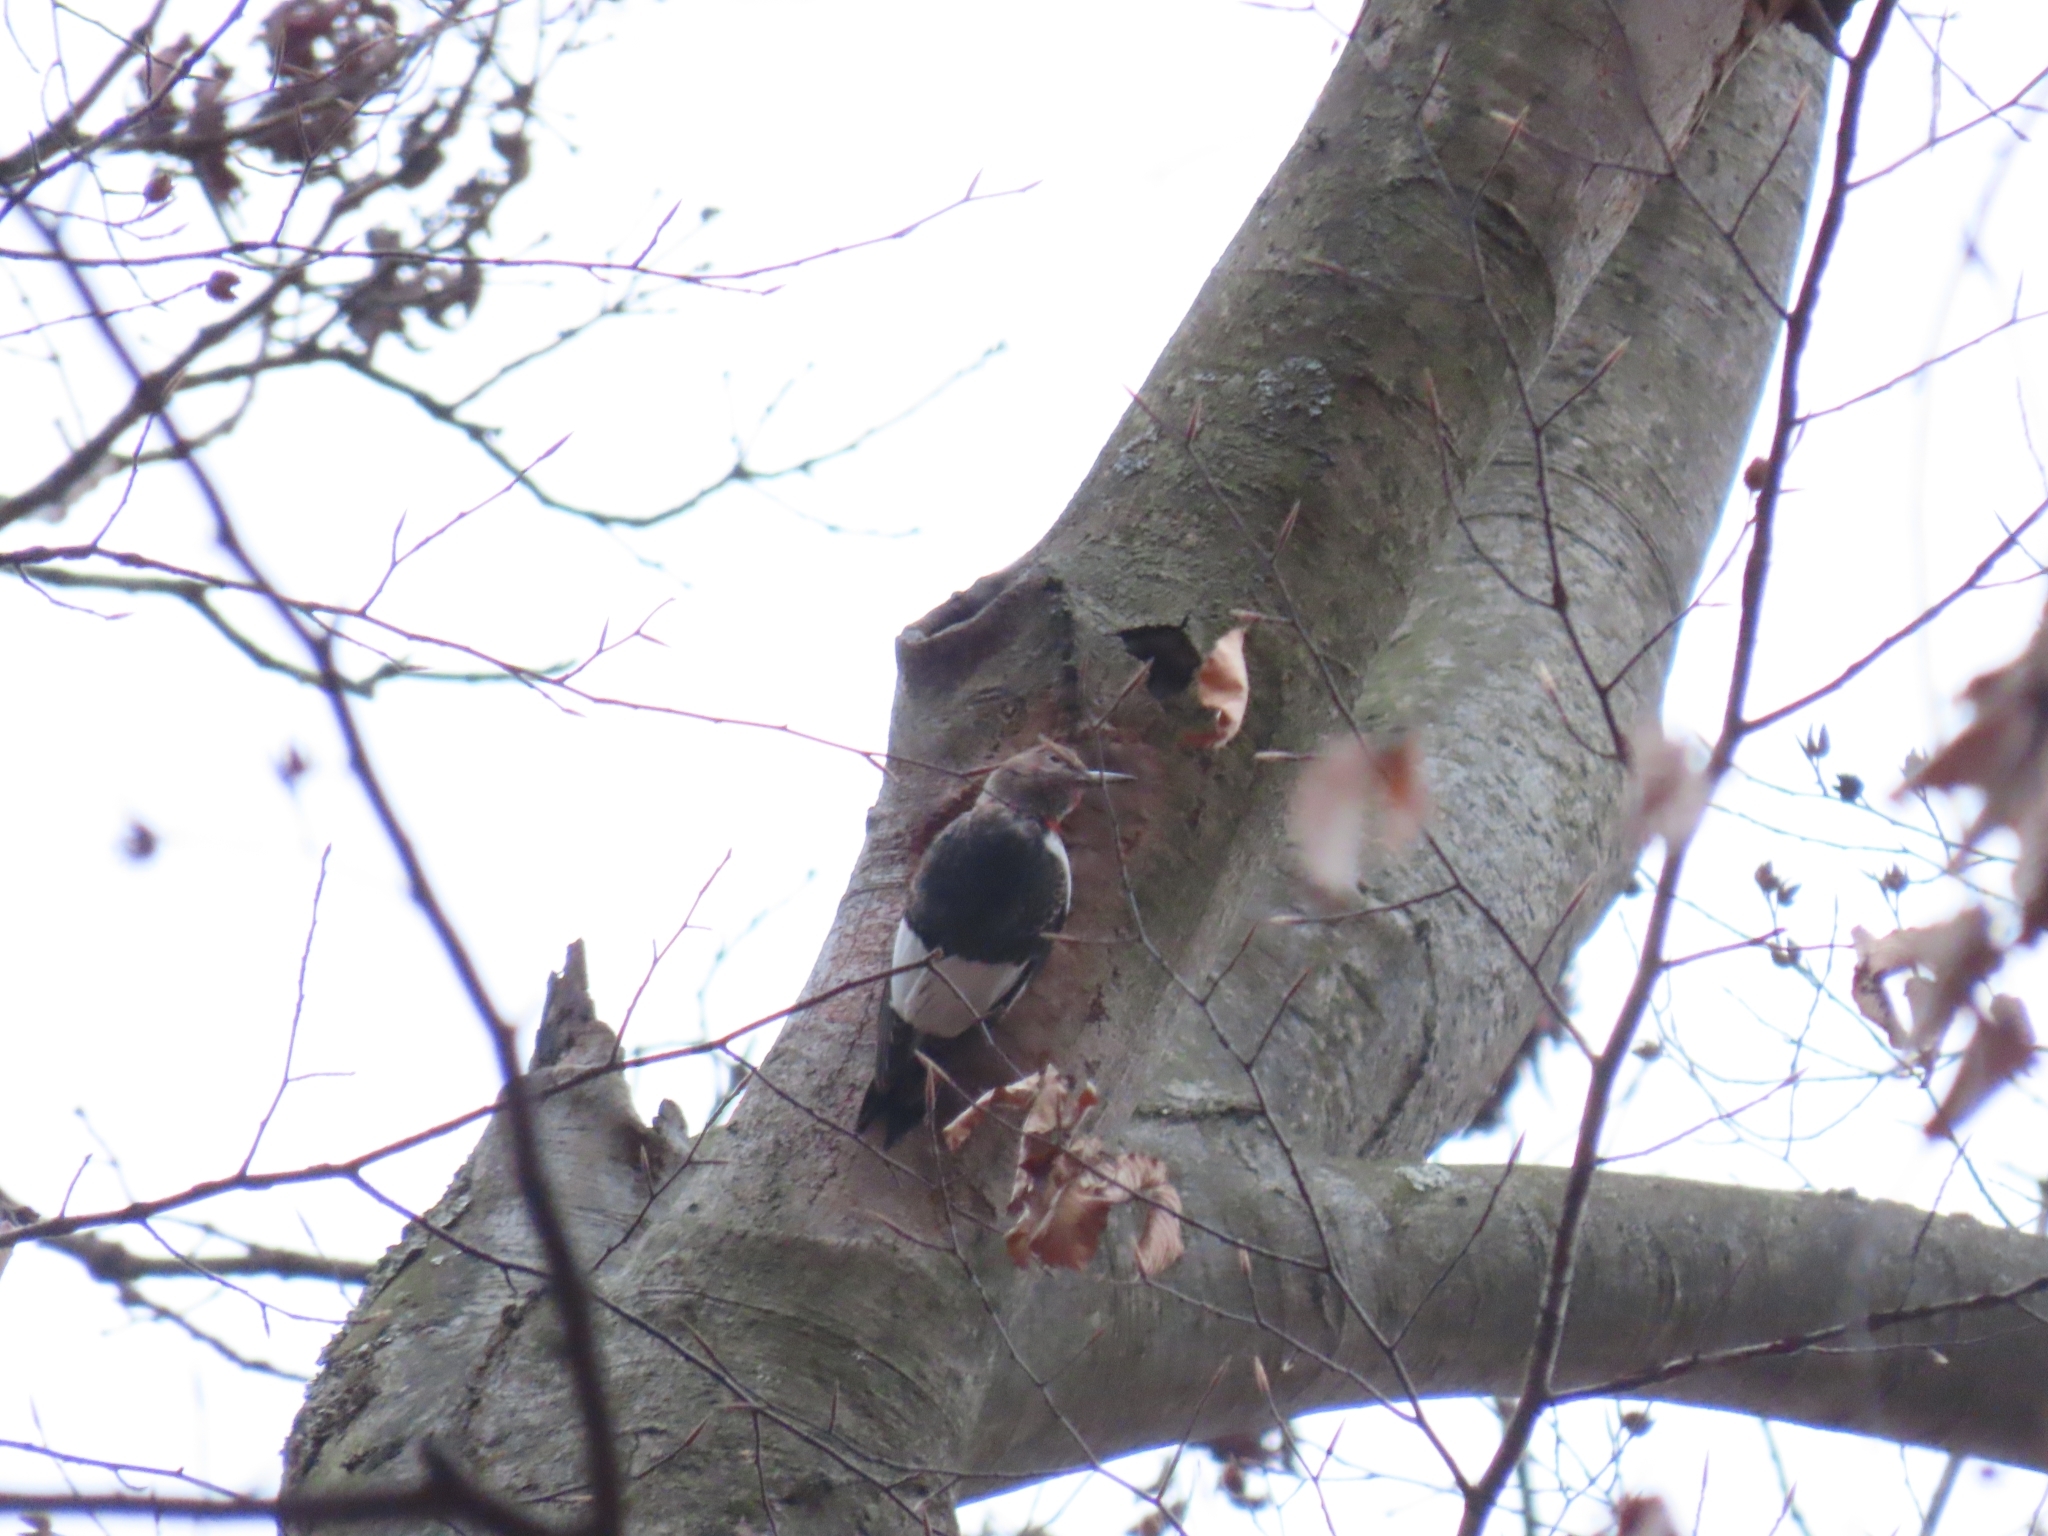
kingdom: Animalia
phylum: Chordata
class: Aves
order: Piciformes
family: Picidae
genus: Melanerpes
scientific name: Melanerpes erythrocephalus
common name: Red-headed woodpecker
